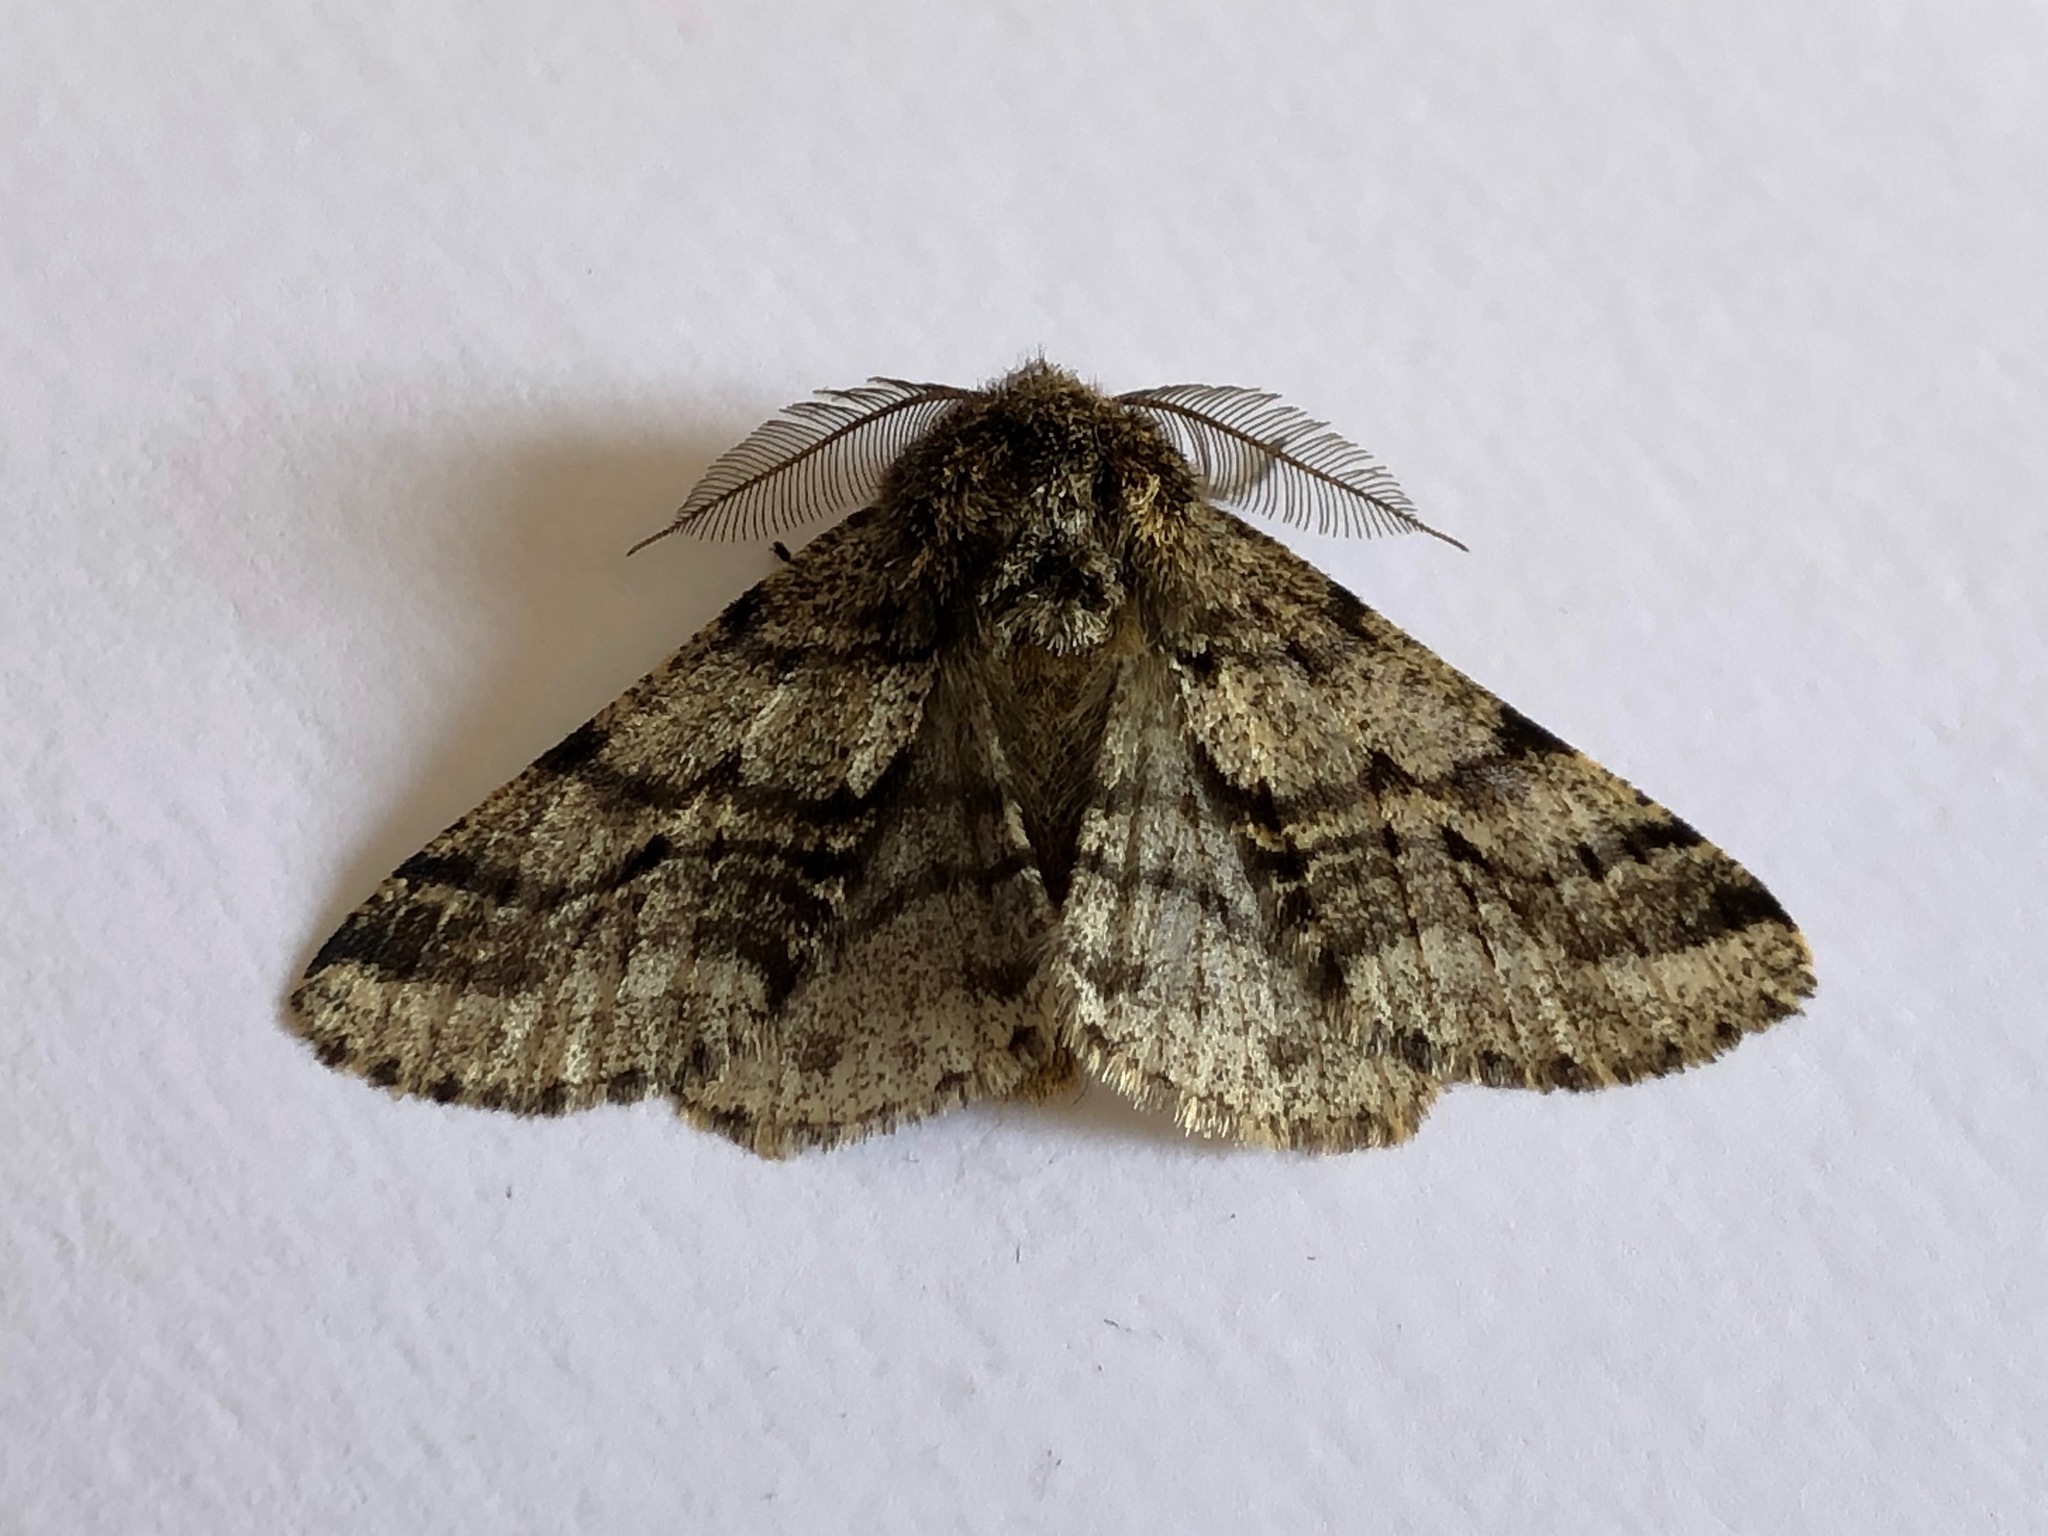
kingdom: Animalia
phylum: Arthropoda
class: Insecta
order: Lepidoptera
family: Geometridae
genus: Lycia
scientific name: Lycia hirtaria
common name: Brindled beauty
